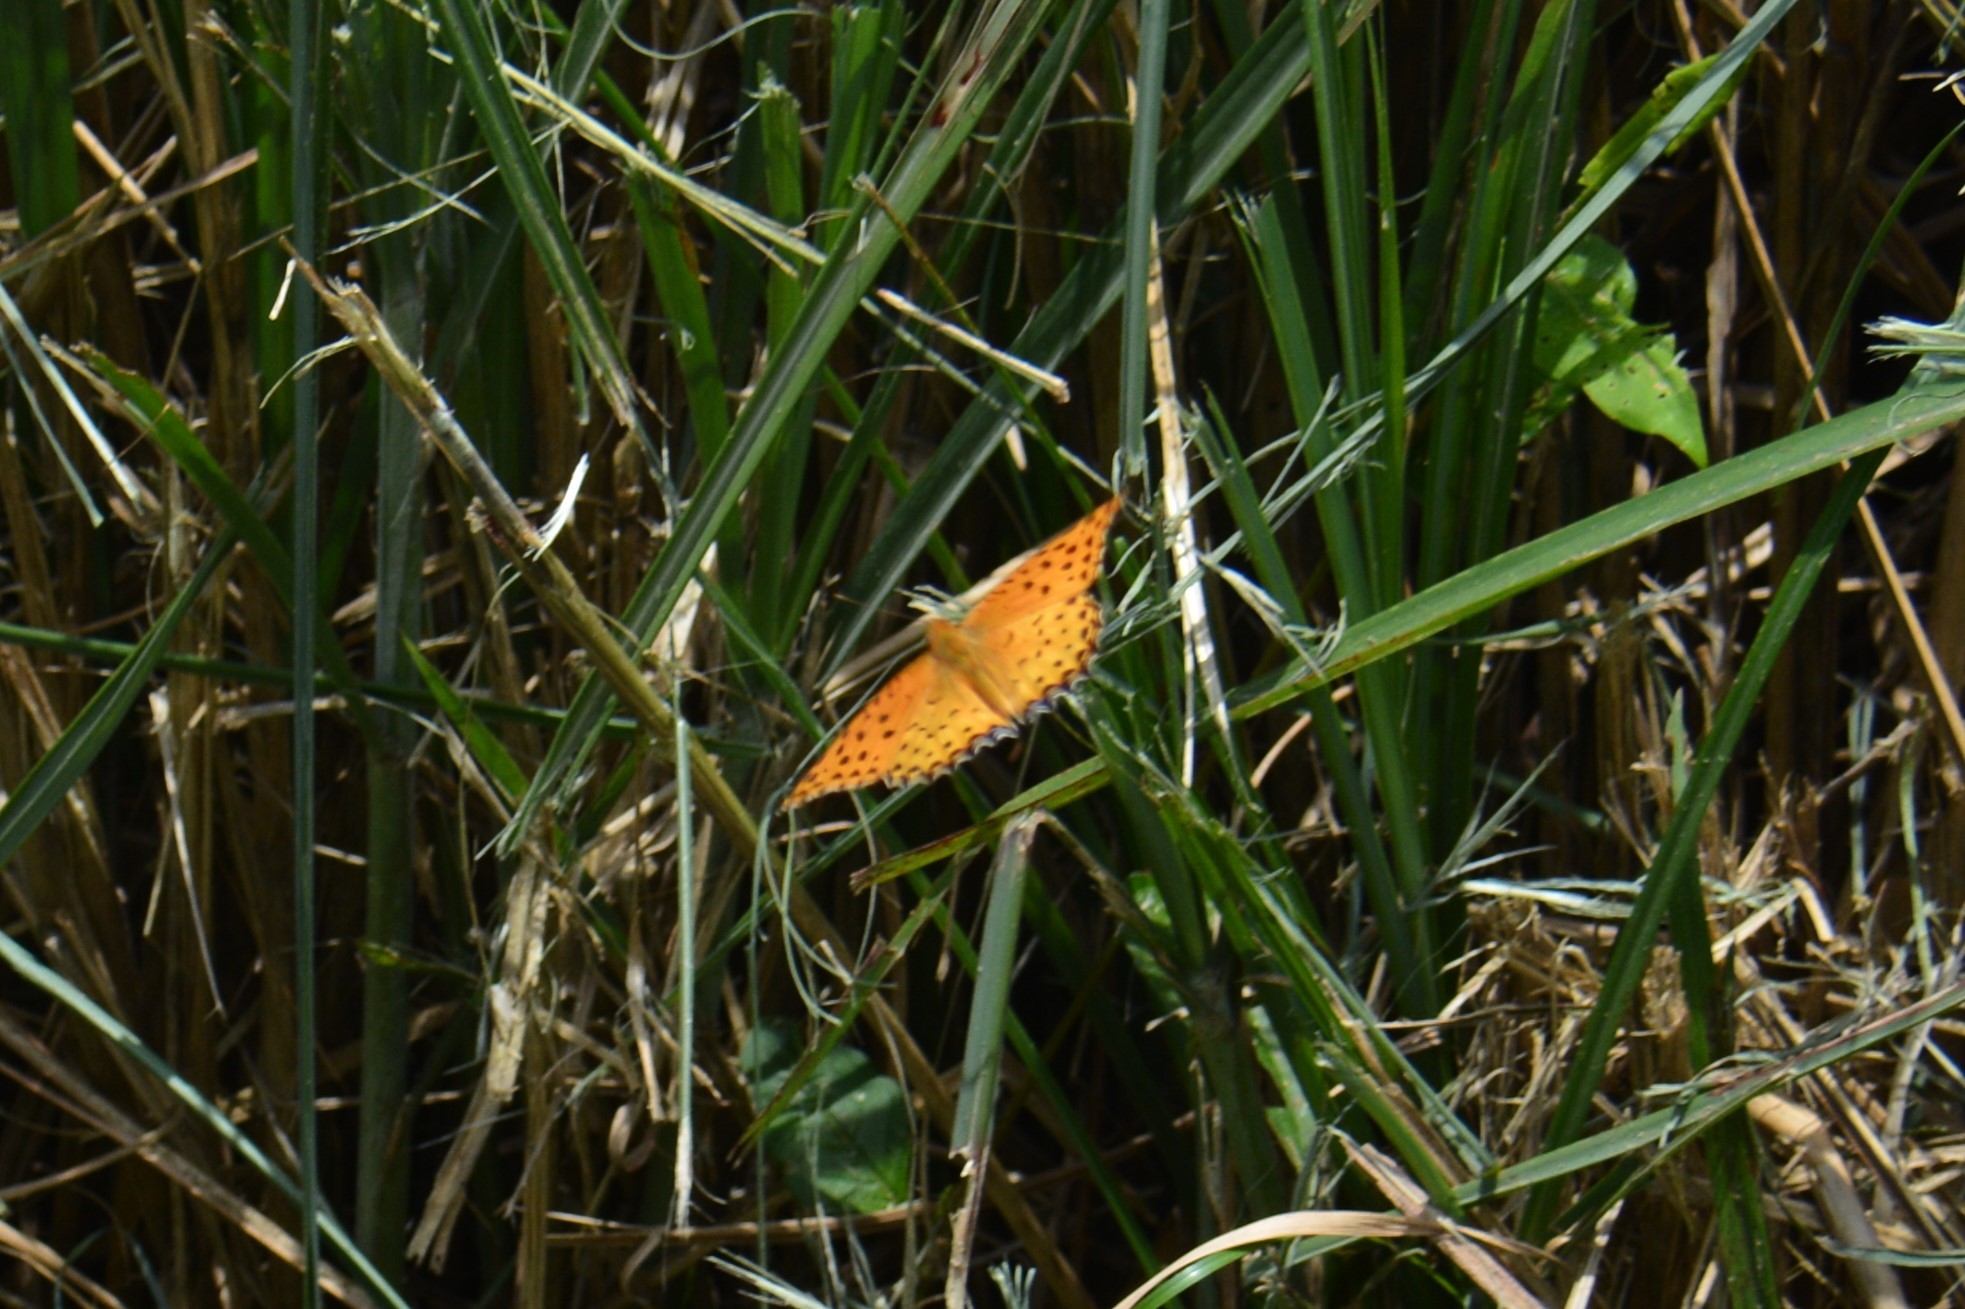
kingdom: Animalia
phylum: Arthropoda
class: Insecta
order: Lepidoptera
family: Nymphalidae
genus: Argynnis
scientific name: Argynnis hyperbius
